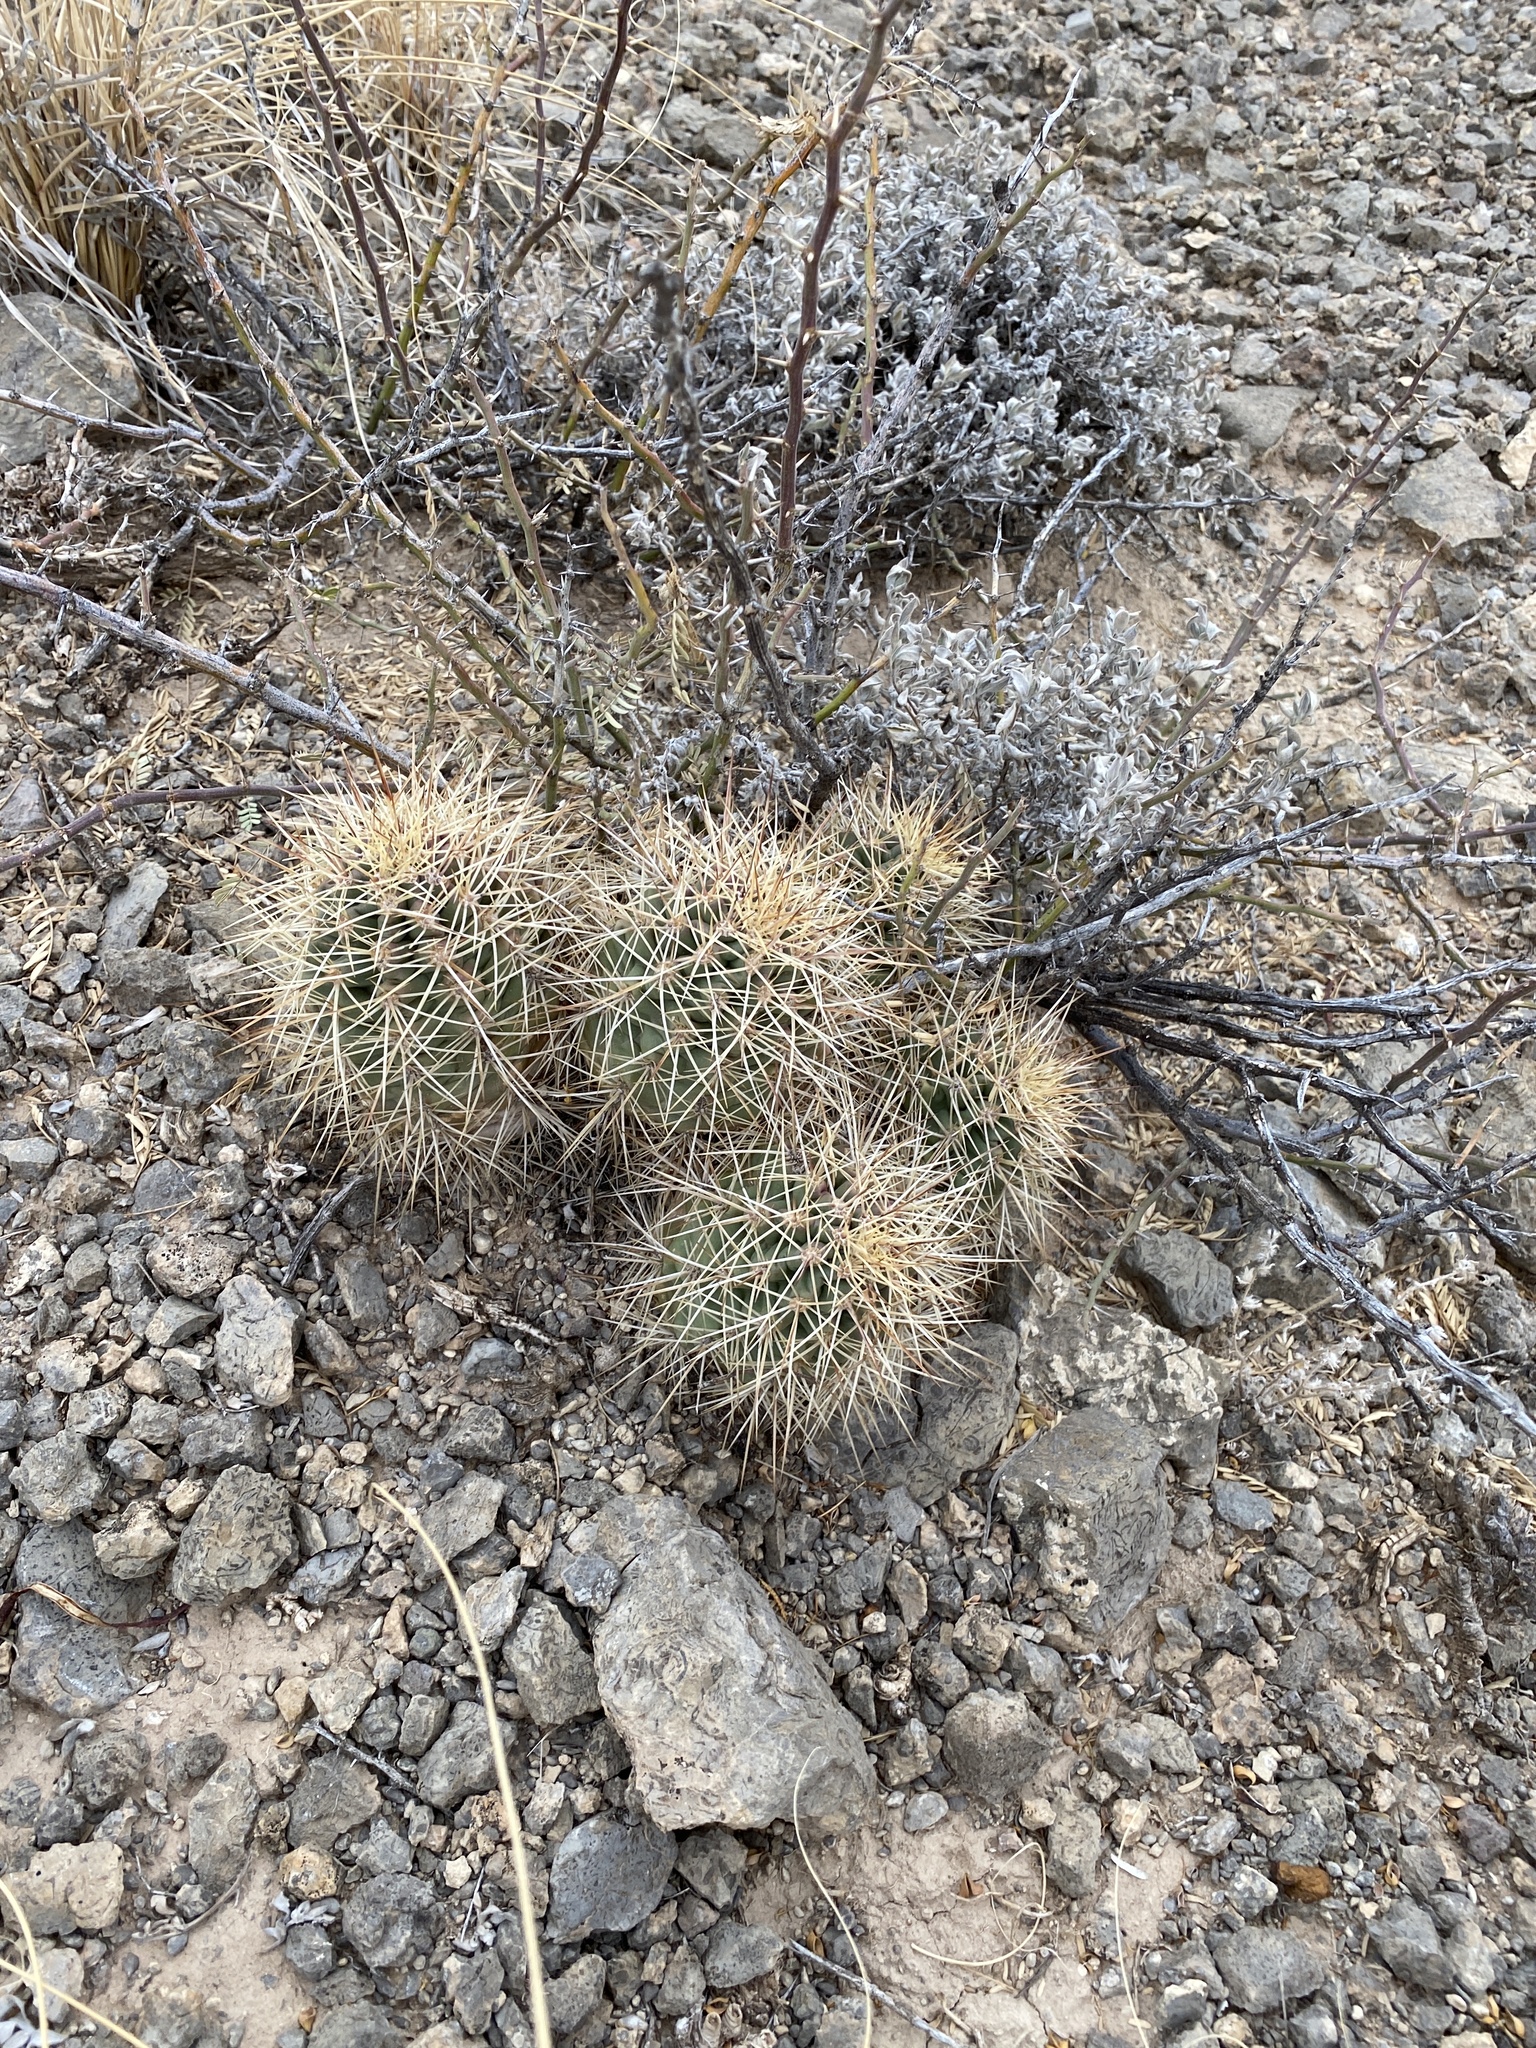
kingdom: Plantae
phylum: Tracheophyta
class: Magnoliopsida
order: Caryophyllales
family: Cactaceae
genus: Echinocereus
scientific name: Echinocereus coccineus
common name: Scarlet hedgehog cactus
